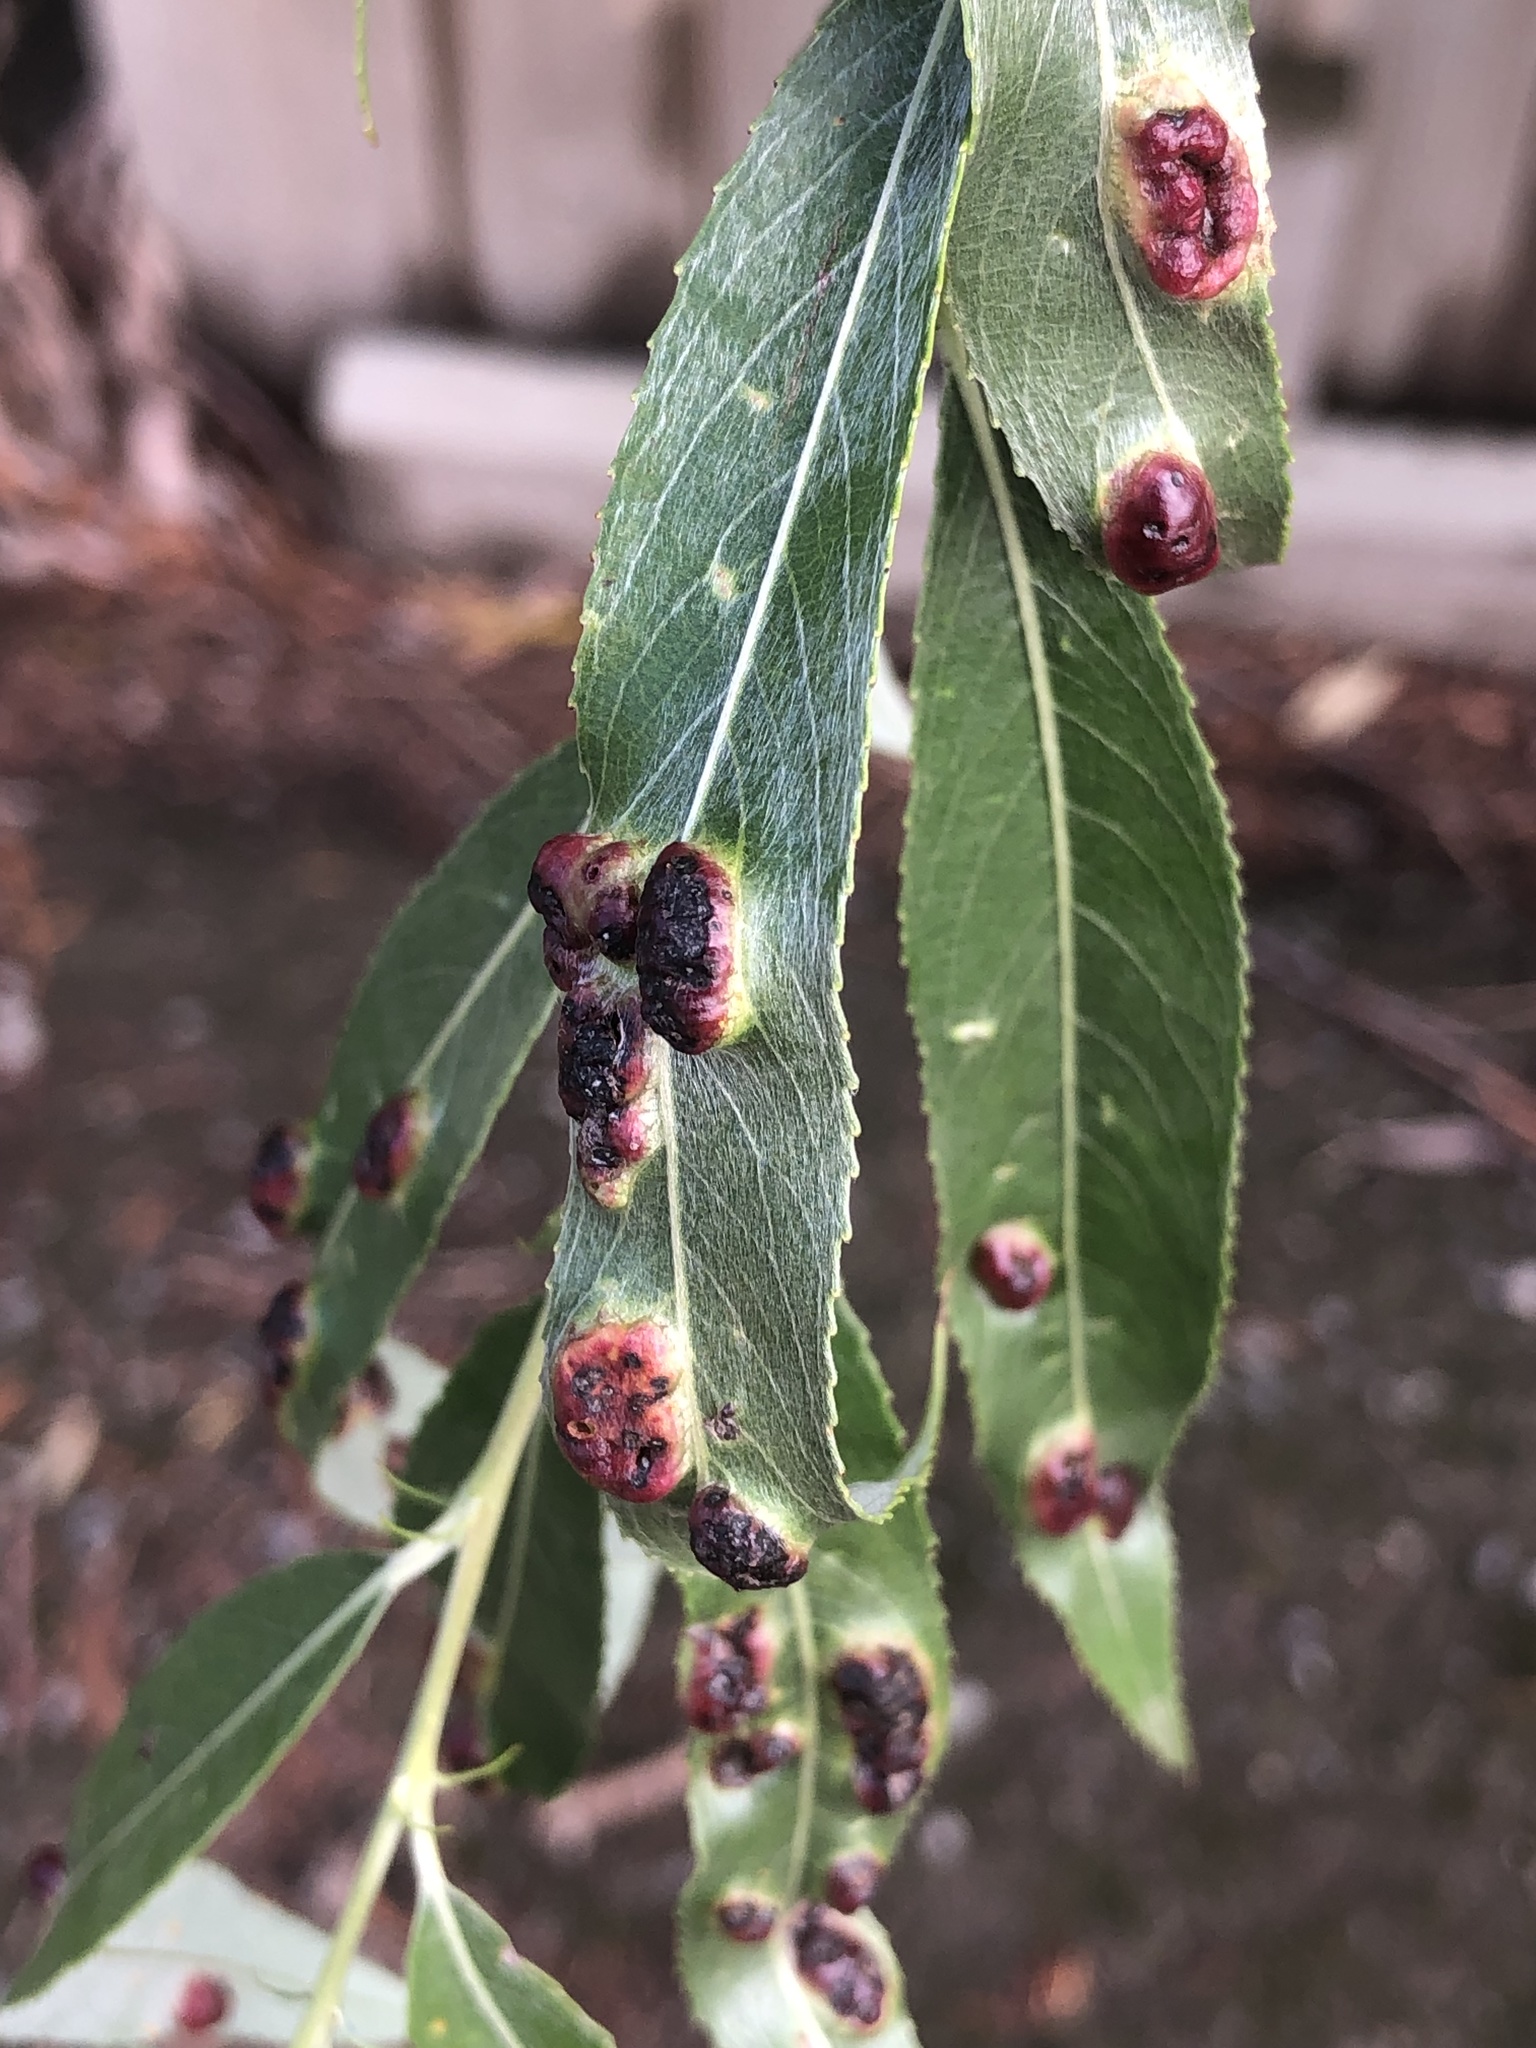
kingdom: Animalia
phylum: Arthropoda
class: Insecta
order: Hymenoptera
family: Tenthredinidae
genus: Pontania
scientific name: Pontania proxima
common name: Common sawfly
